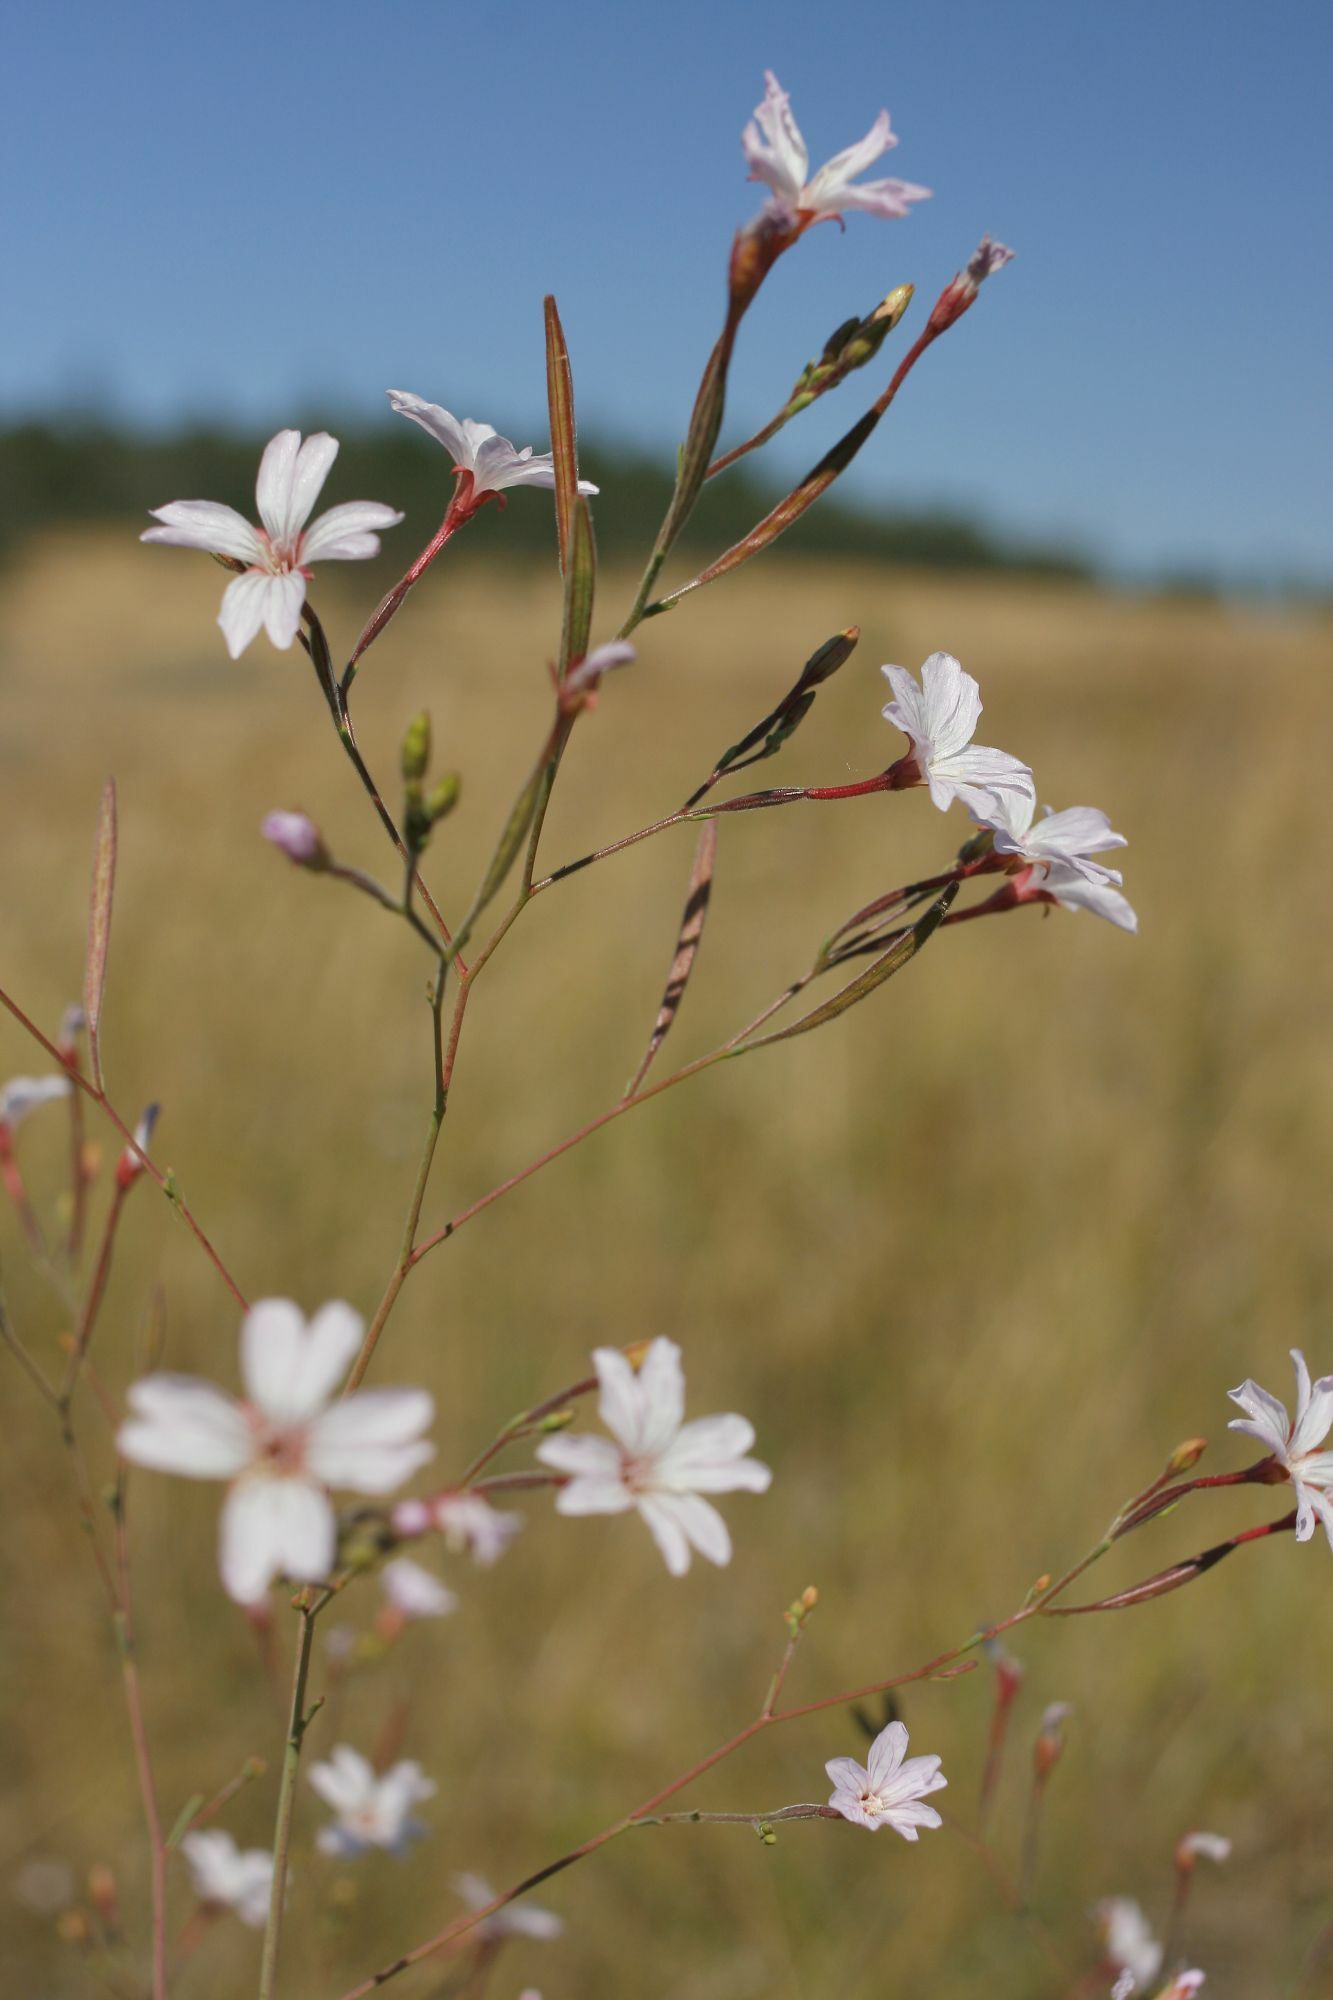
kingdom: Plantae
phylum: Tracheophyta
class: Magnoliopsida
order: Myrtales
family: Onagraceae
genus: Epilobium
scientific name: Epilobium brachycarpum
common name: Annual willowherb
